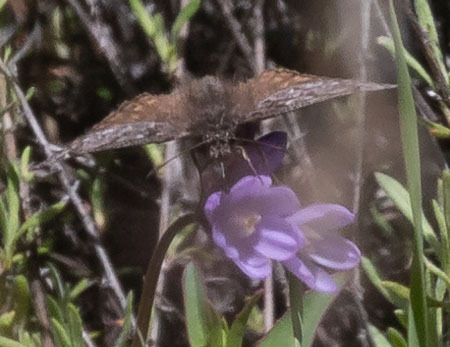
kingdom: Animalia
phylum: Arthropoda
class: Insecta
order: Lepidoptera
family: Hesperiidae
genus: Erynnis
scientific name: Erynnis propertius
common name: Propertius duskywing
